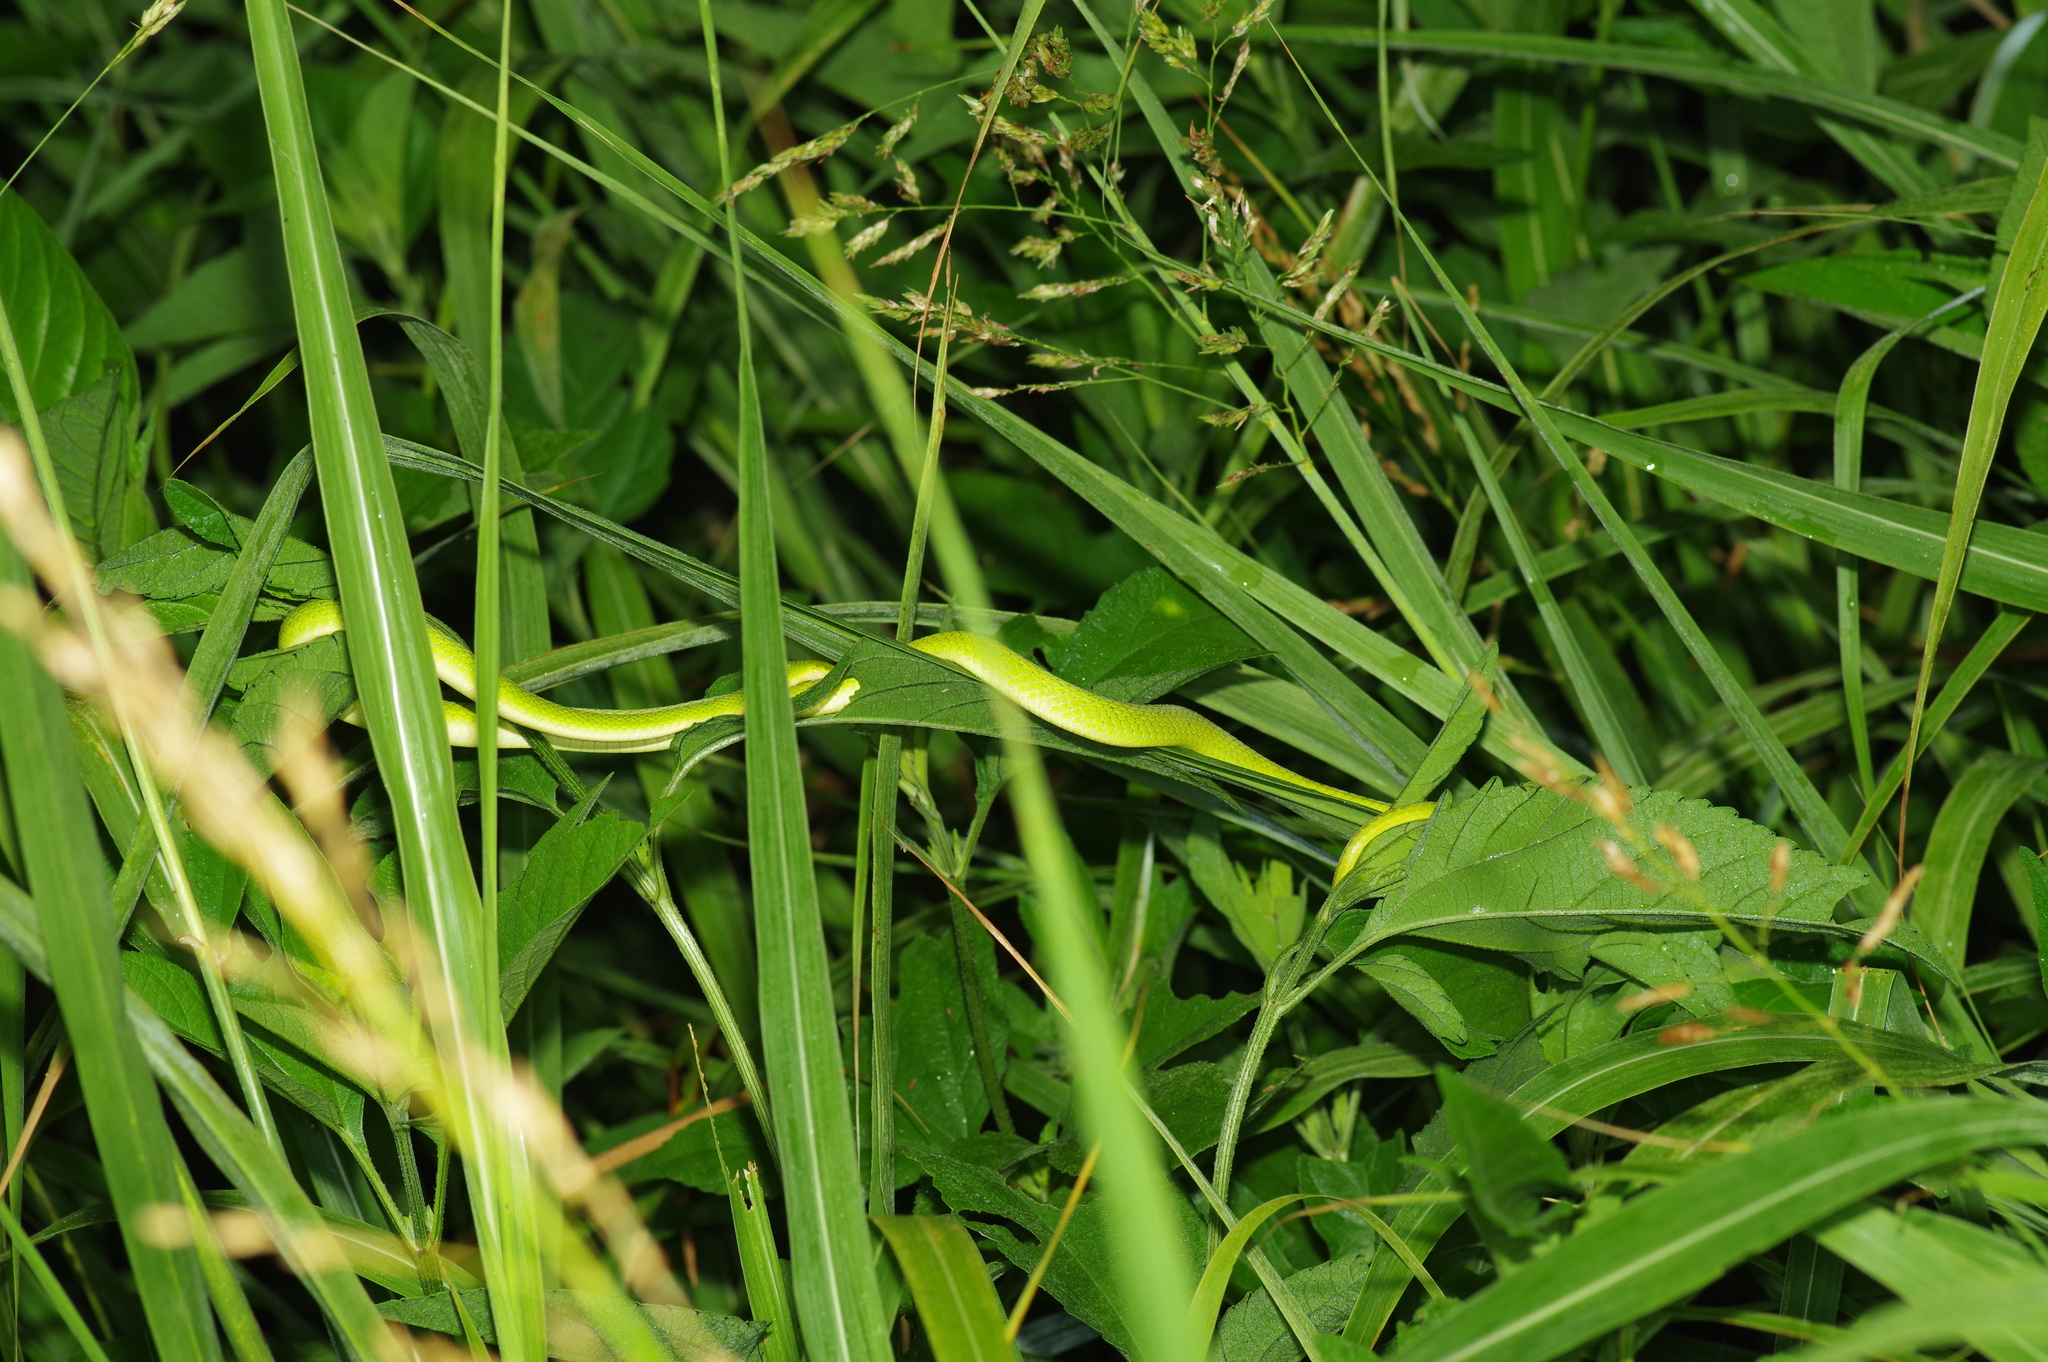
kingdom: Animalia
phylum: Chordata
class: Squamata
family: Colubridae
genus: Opheodrys
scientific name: Opheodrys aestivus
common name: Rough greensnake
